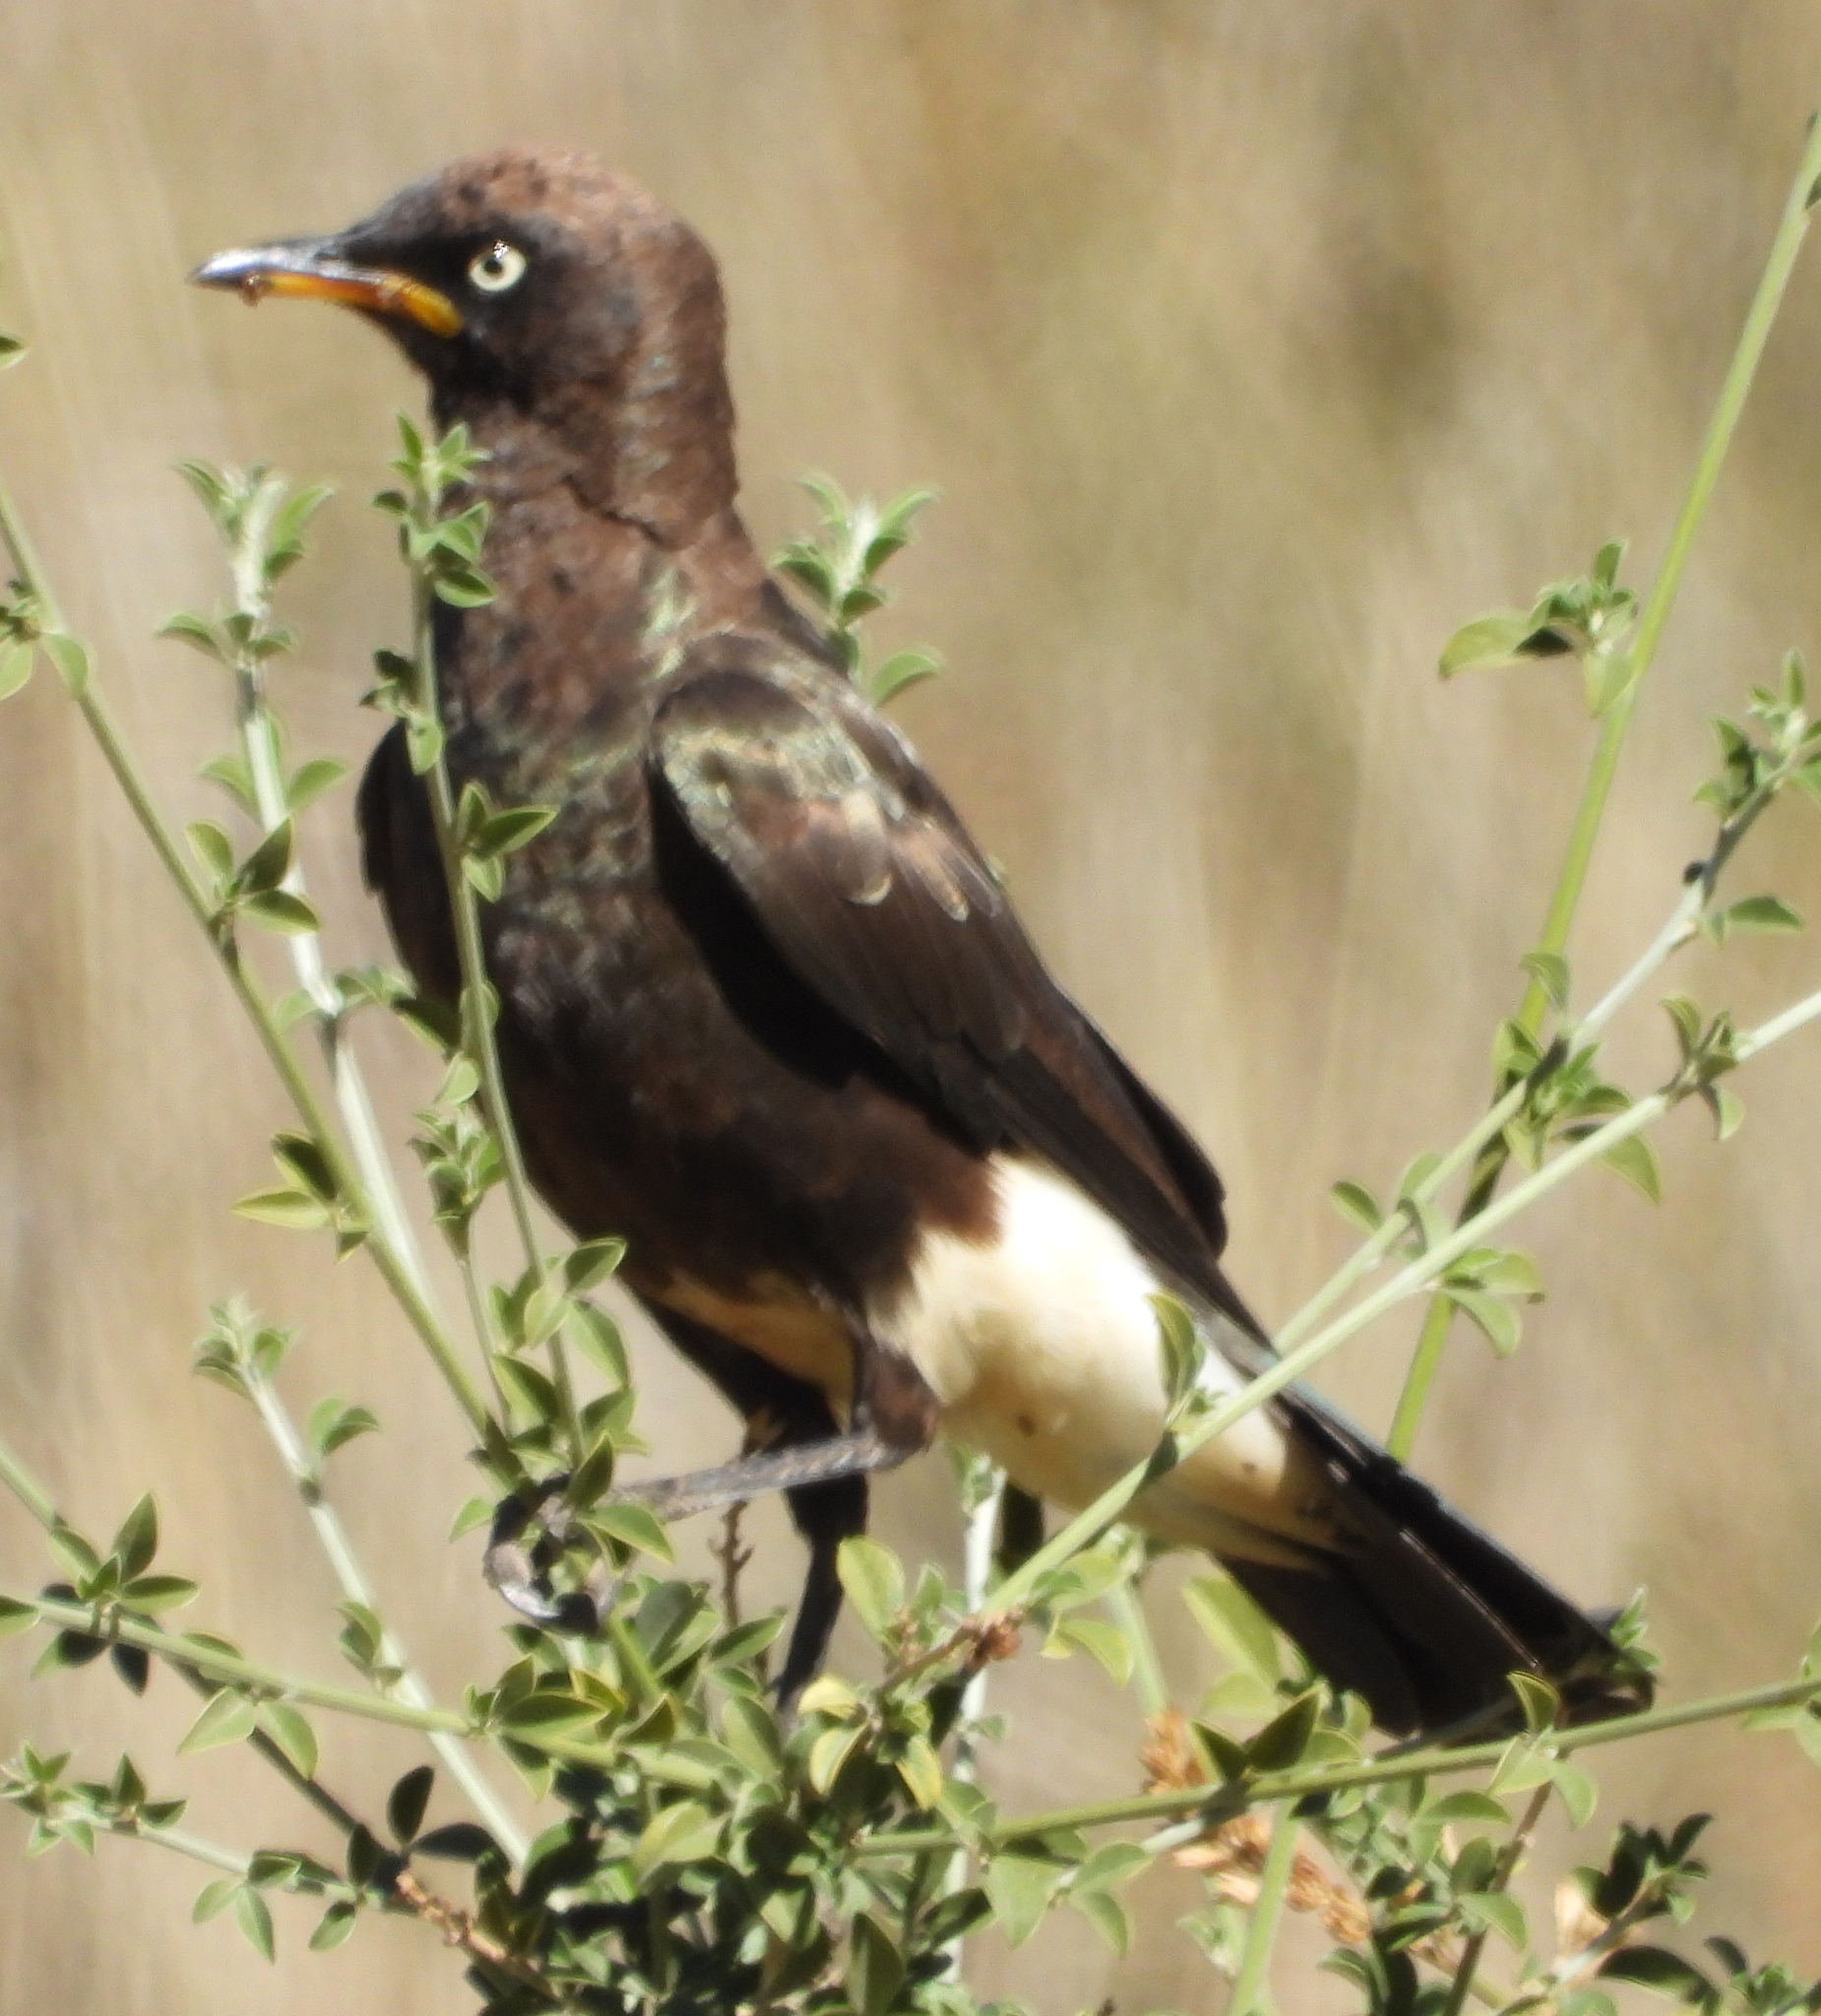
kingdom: Animalia
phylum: Chordata
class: Aves
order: Passeriformes
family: Sturnidae
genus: Lamprotornis
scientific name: Lamprotornis bicolor
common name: Pied starling
